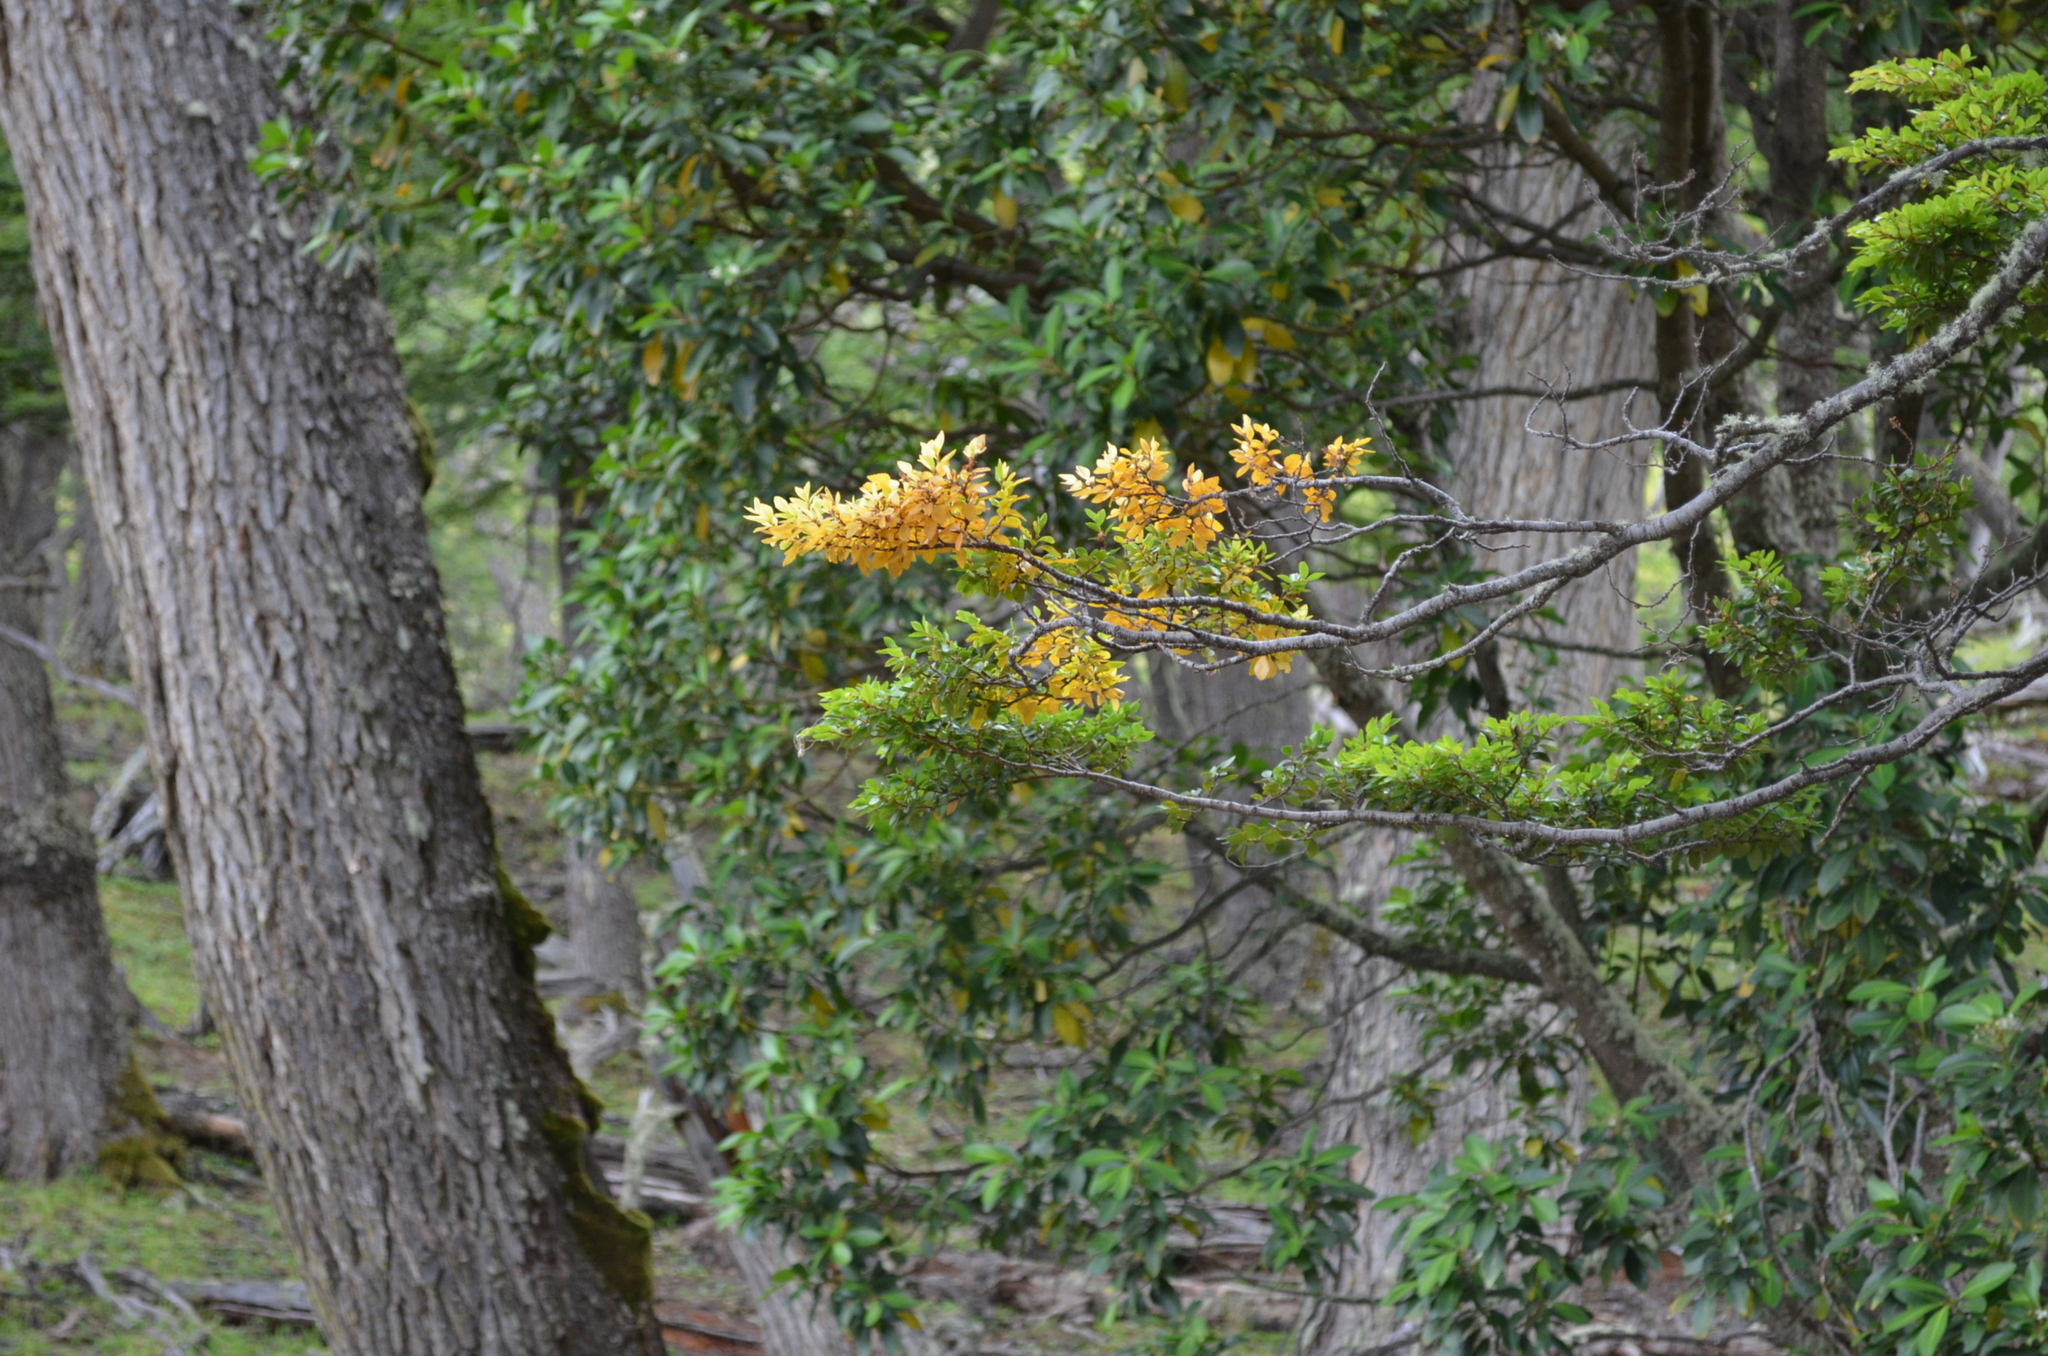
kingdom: Plantae
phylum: Tracheophyta
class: Magnoliopsida
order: Fagales
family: Nothofagaceae
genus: Nothofagus
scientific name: Nothofagus betuloides
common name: Magellan's beech
